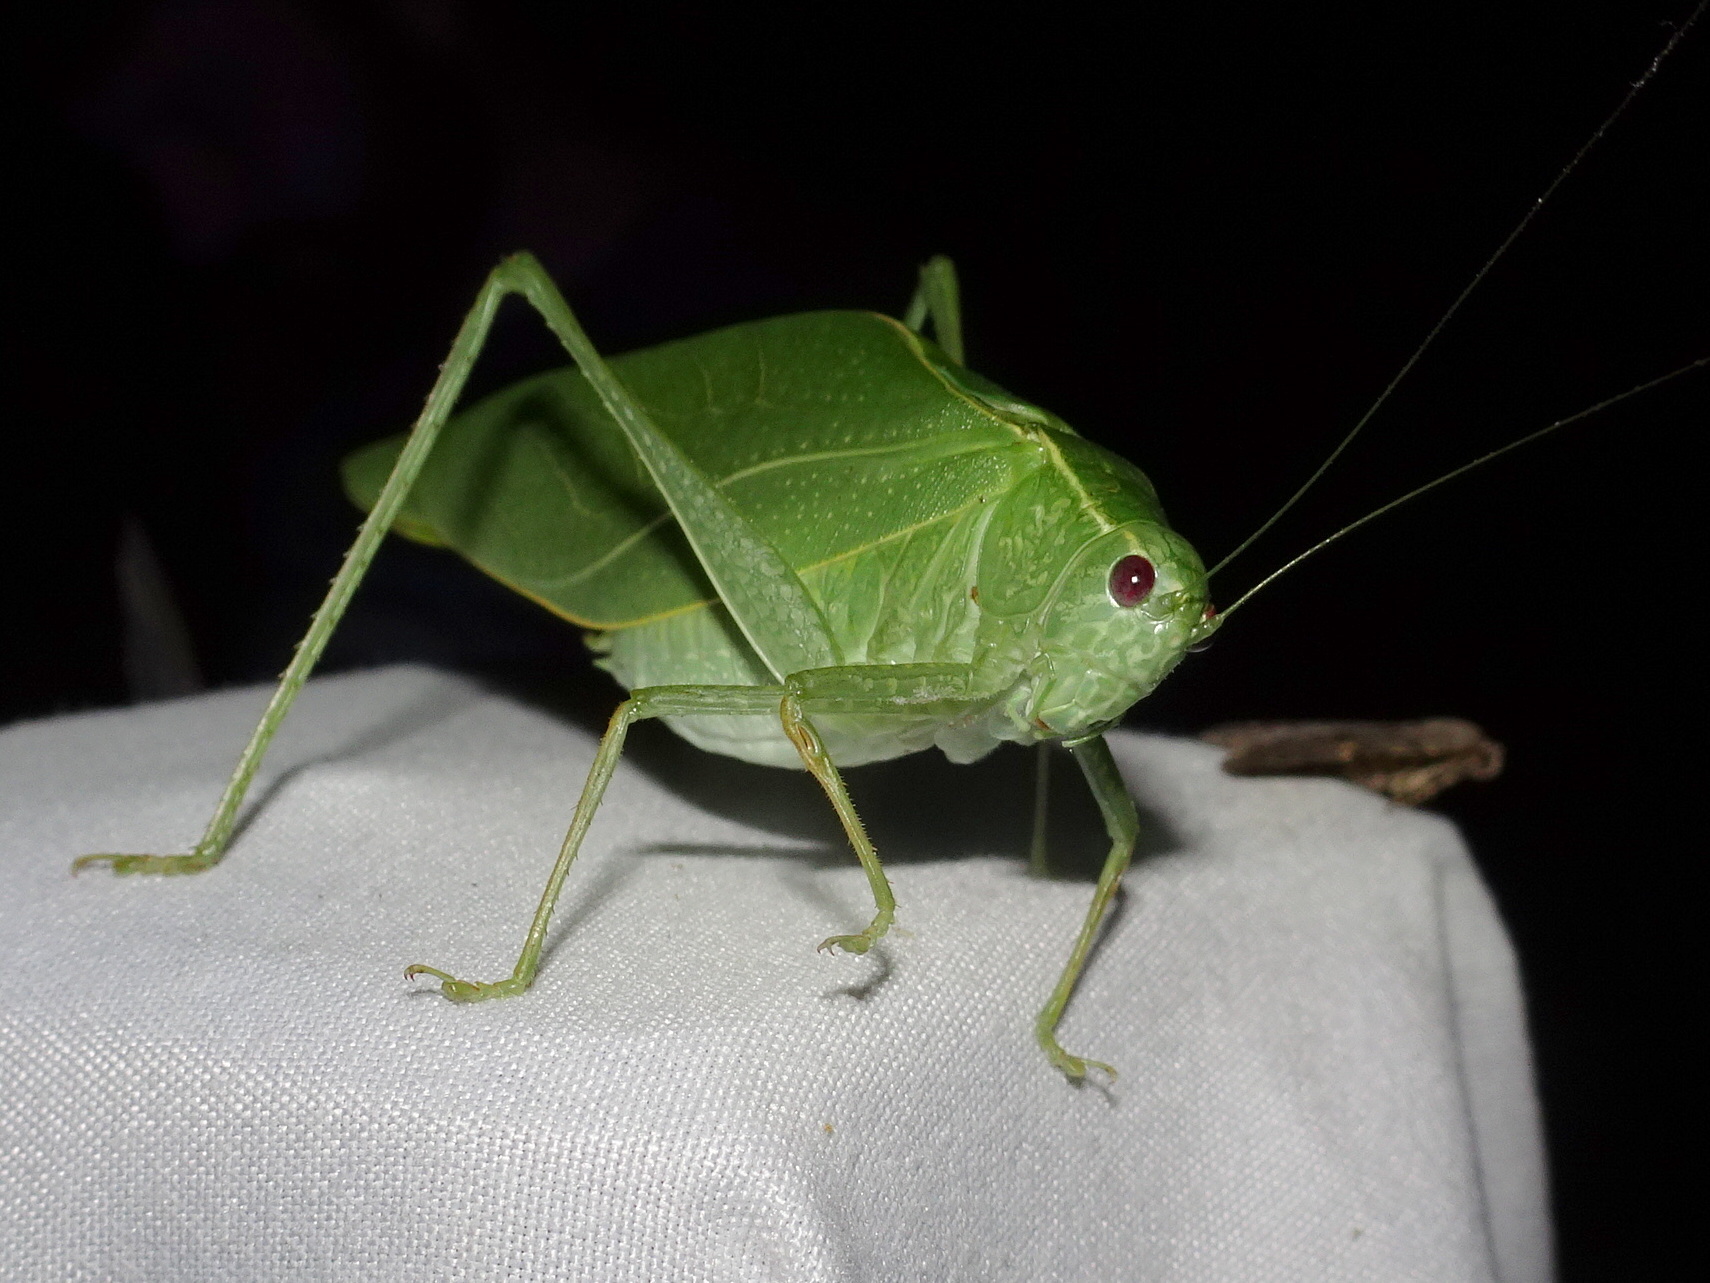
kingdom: Animalia
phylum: Arthropoda
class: Insecta
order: Orthoptera
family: Tettigoniidae
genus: Microcentrum
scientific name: Microcentrum rhombifolium
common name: Broad-winged katydid
